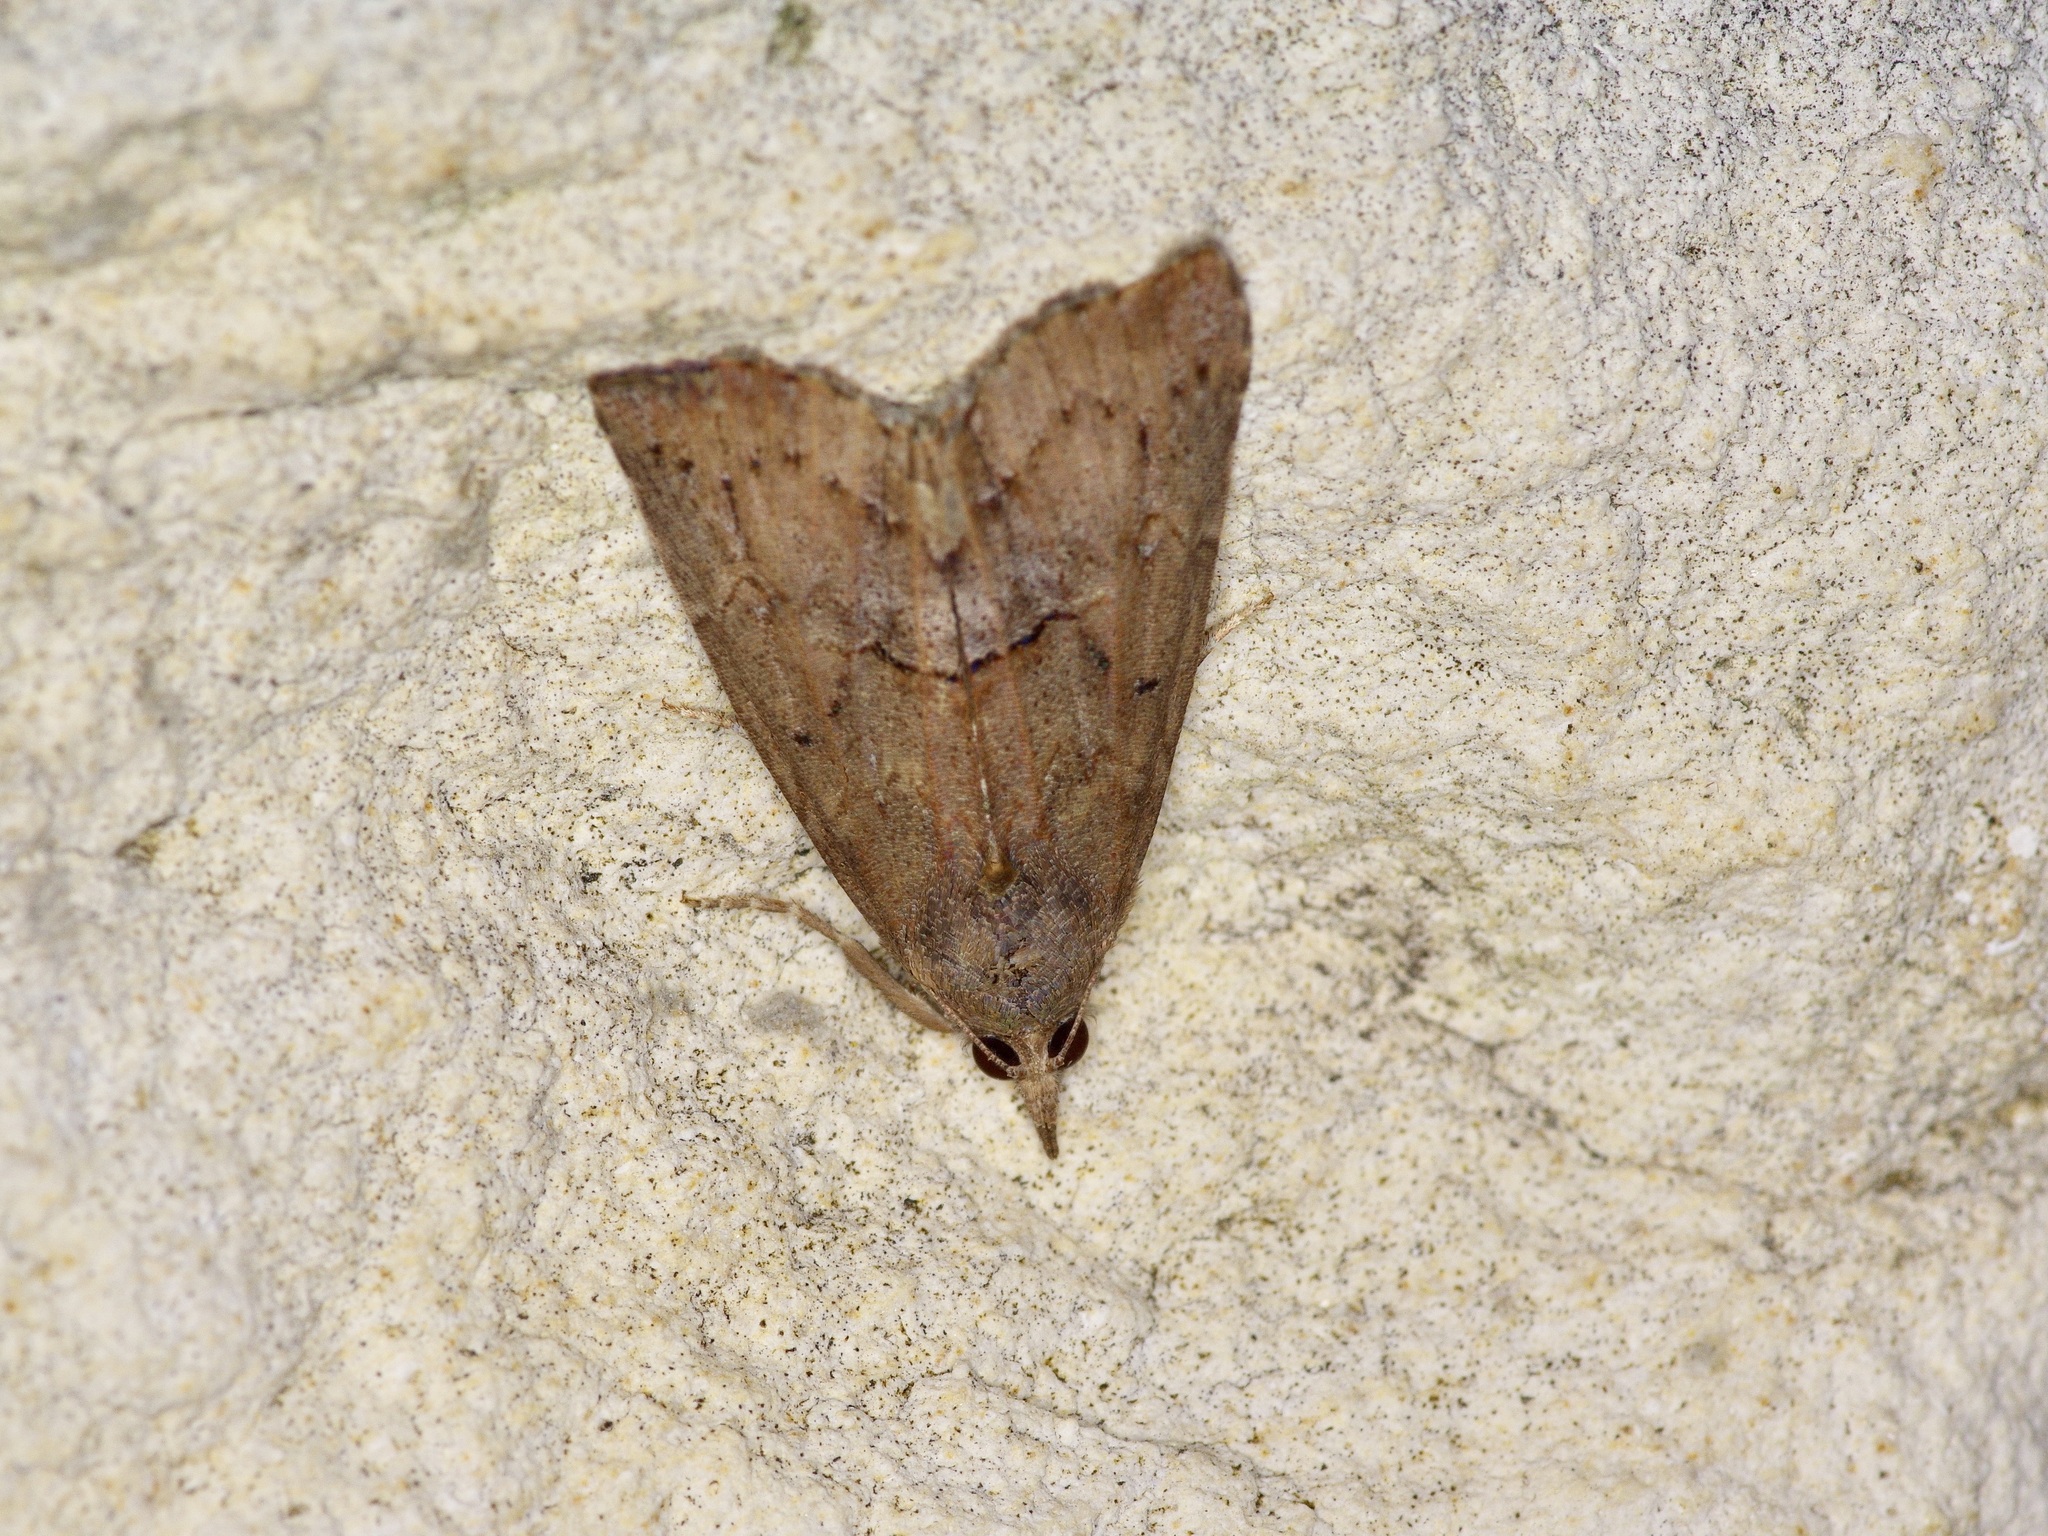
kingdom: Animalia
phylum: Arthropoda
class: Insecta
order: Lepidoptera
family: Erebidae
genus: Hypena
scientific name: Hypena scabra
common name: Green cloverworm
